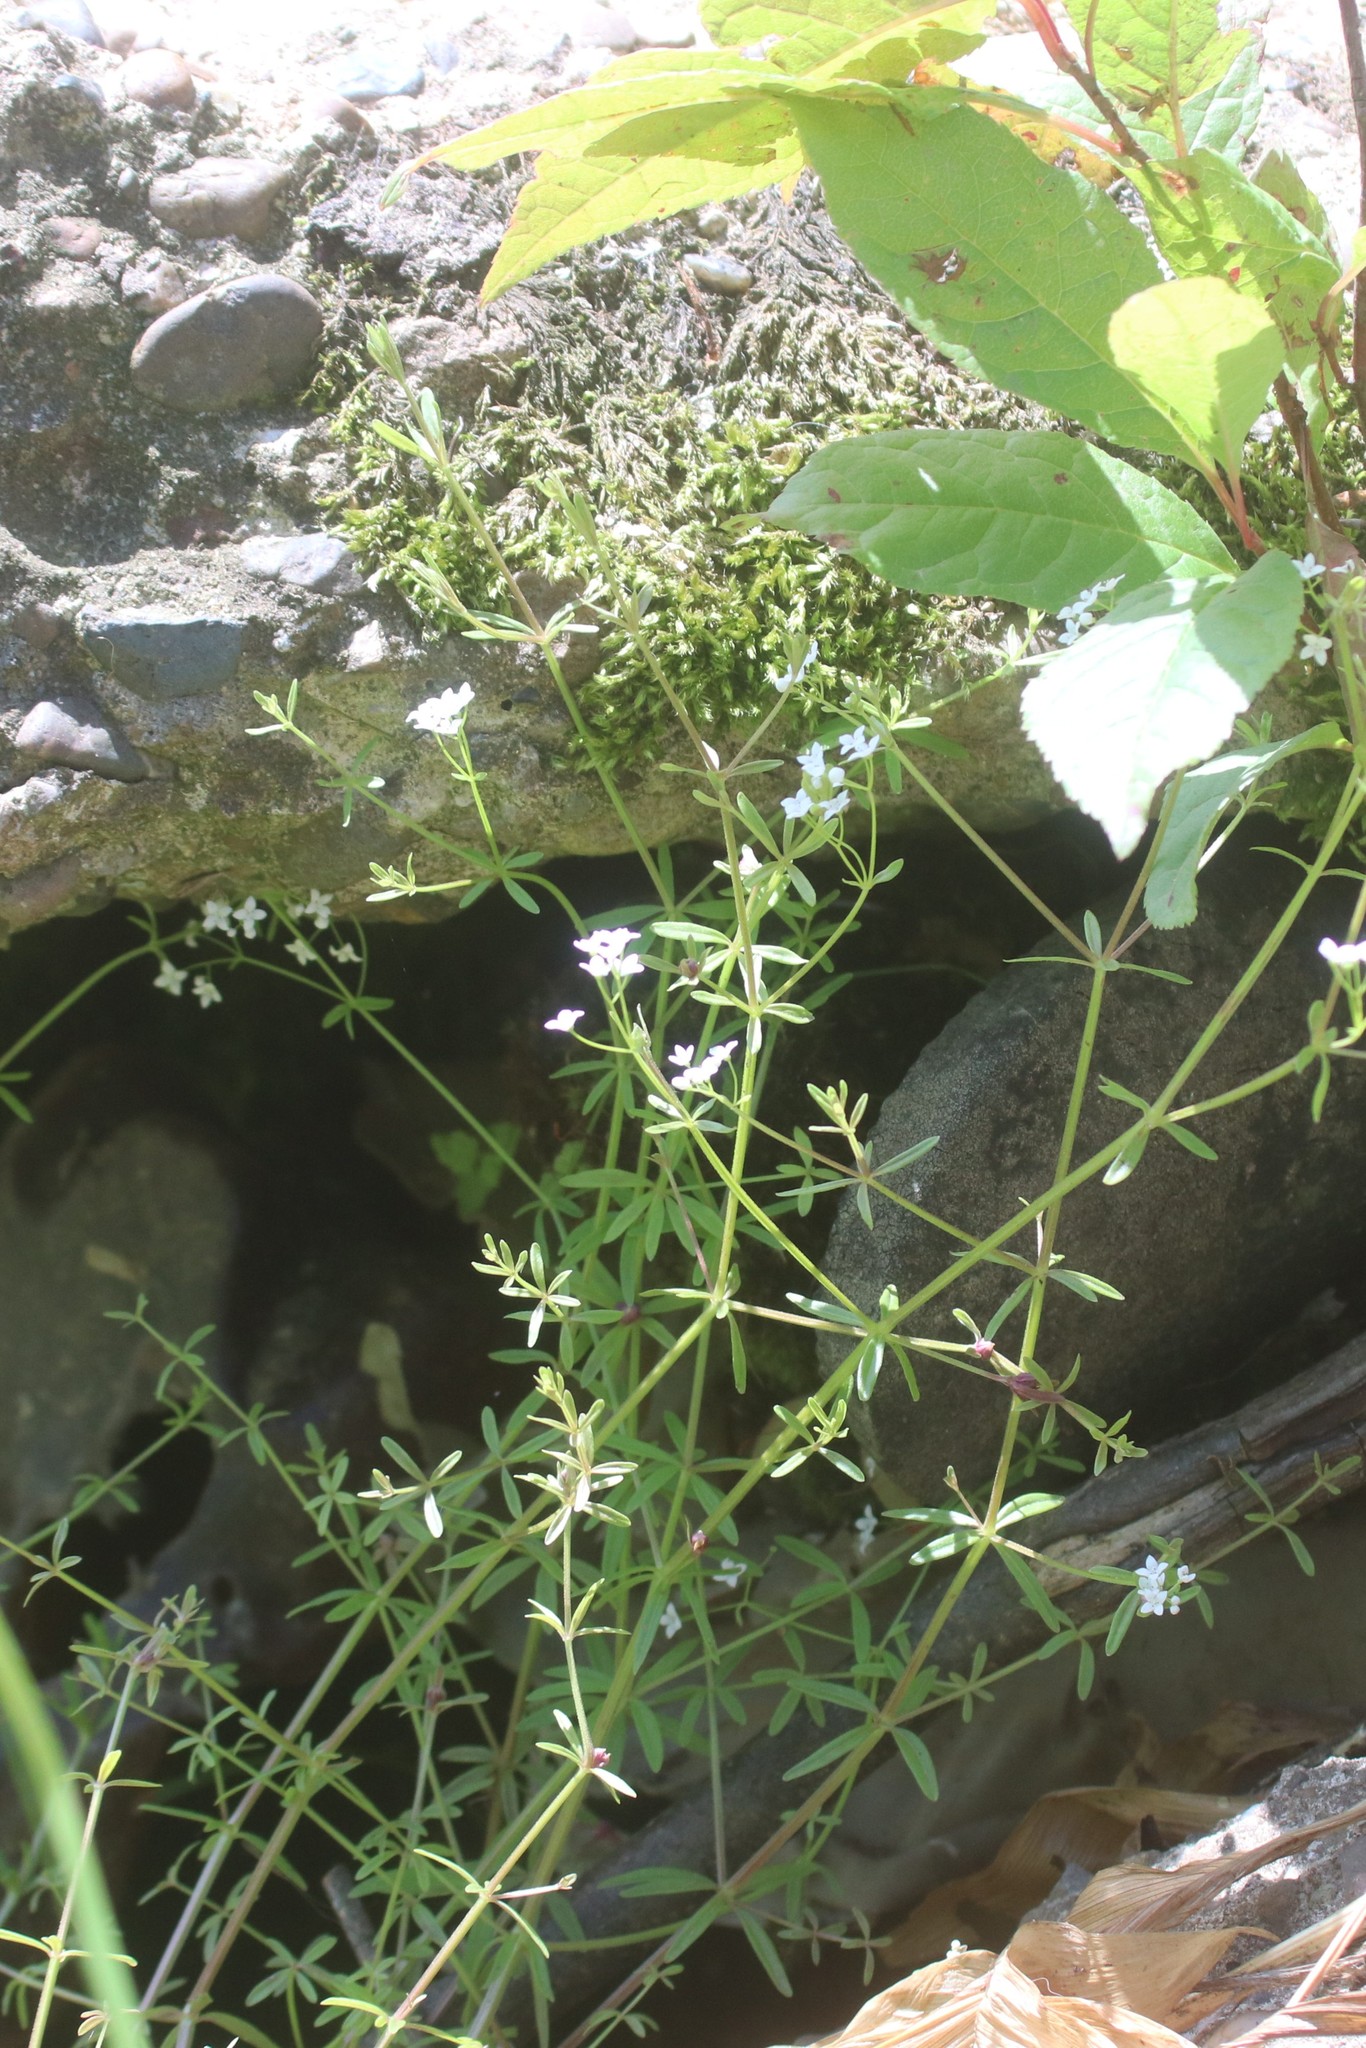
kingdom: Plantae
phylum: Tracheophyta
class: Magnoliopsida
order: Gentianales
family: Rubiaceae
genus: Galium
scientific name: Galium palustre
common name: Common marsh-bedstraw
